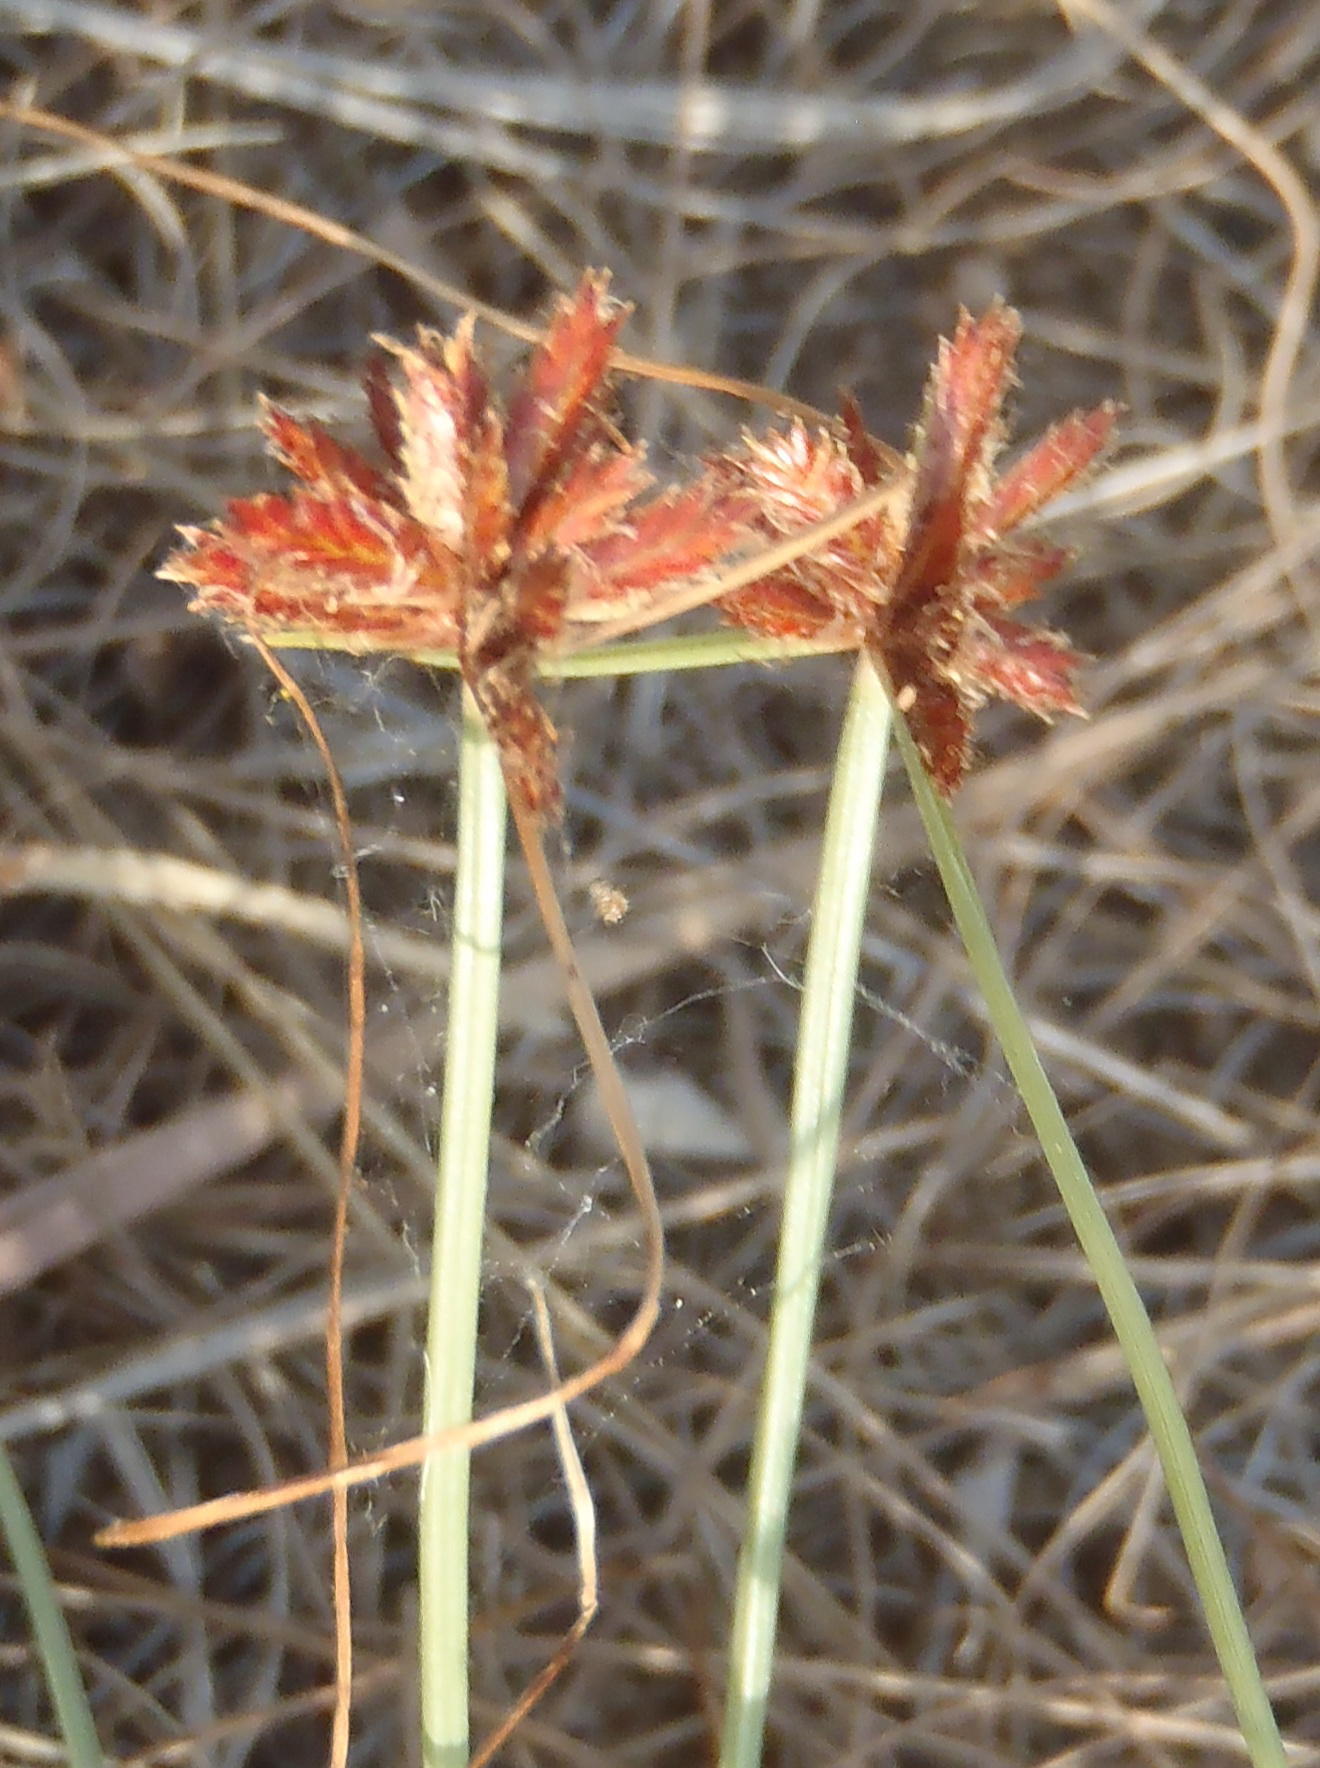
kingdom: Plantae
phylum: Tracheophyta
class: Liliopsida
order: Poales
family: Cyperaceae
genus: Cyperus
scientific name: Cyperus semitrifidus
